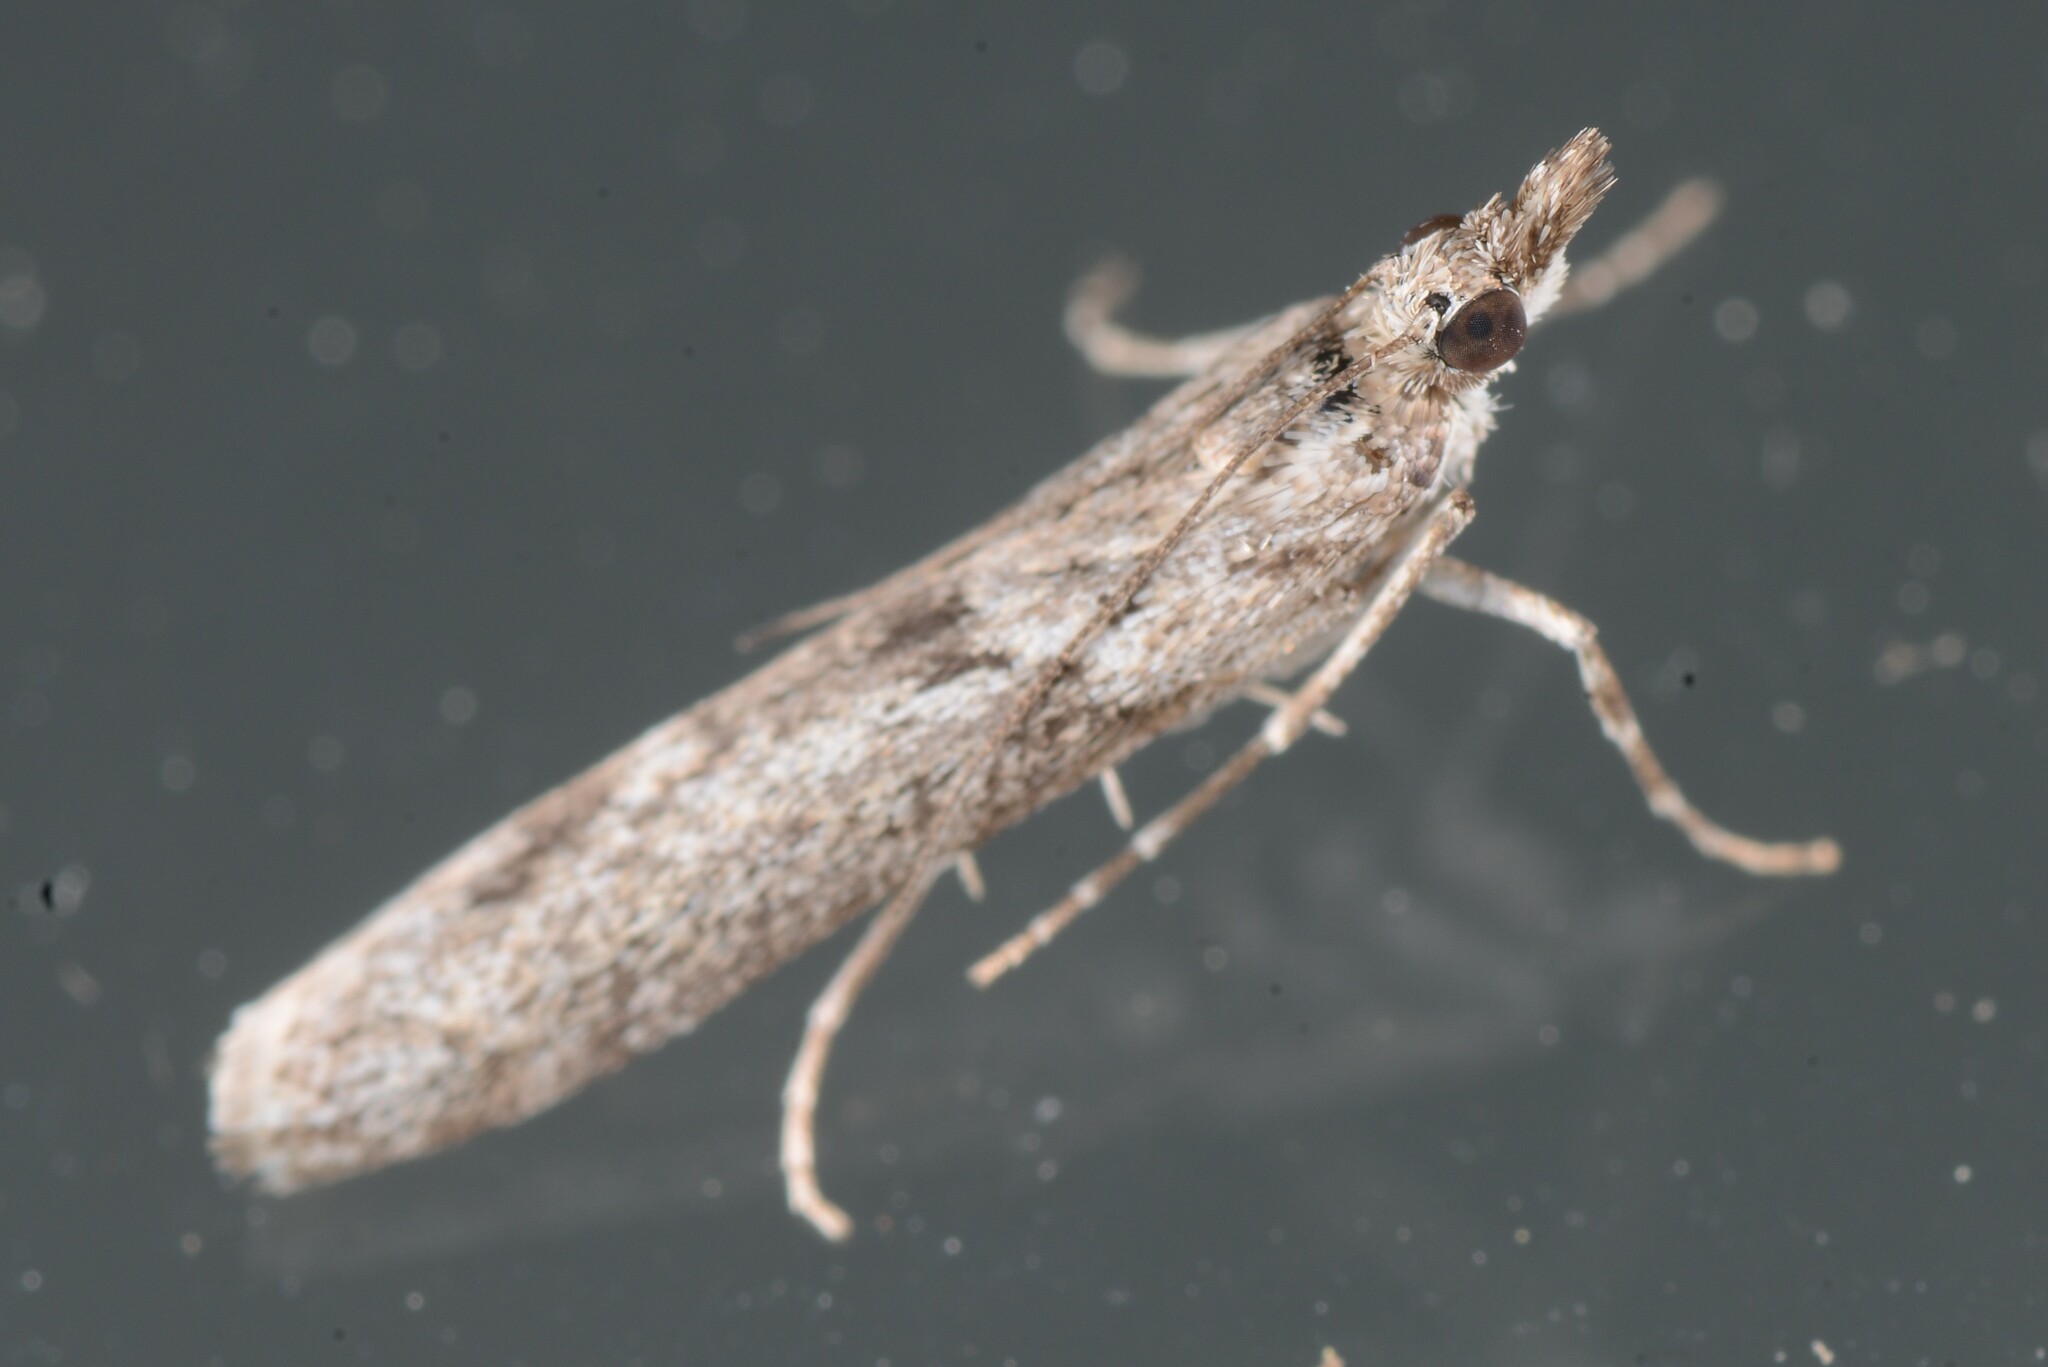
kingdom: Animalia
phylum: Arthropoda
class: Insecta
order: Lepidoptera
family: Crambidae
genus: Eudonia
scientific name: Eudonia leptalea
